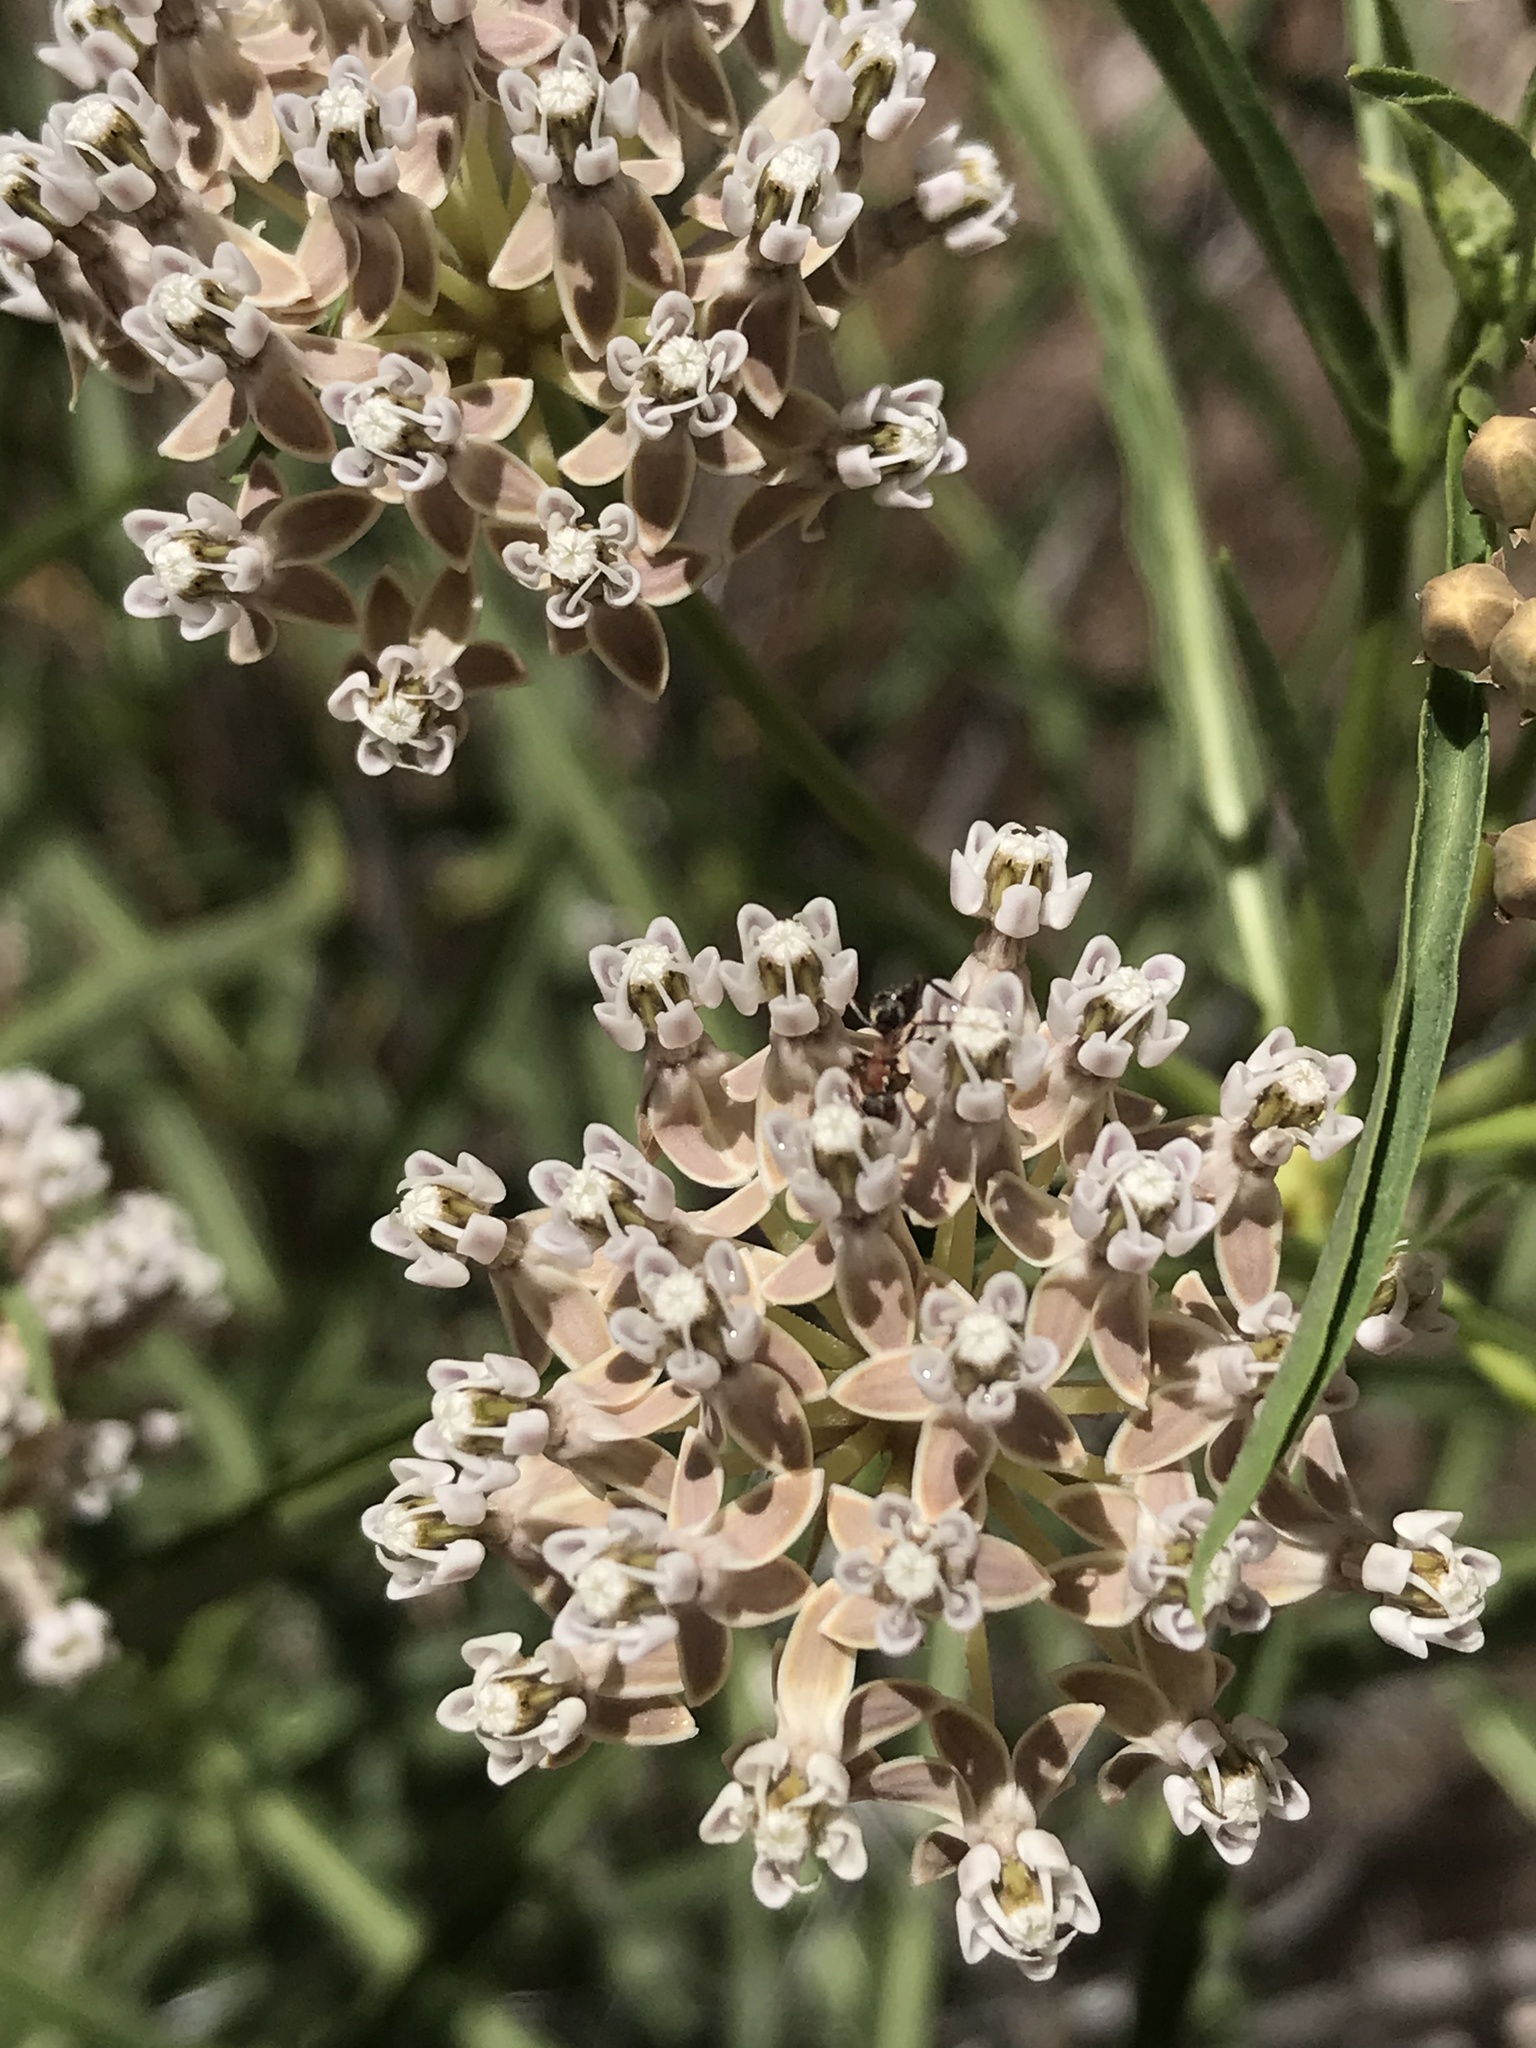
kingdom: Plantae
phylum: Tracheophyta
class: Magnoliopsida
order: Gentianales
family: Apocynaceae
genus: Asclepias
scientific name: Asclepias fascicularis
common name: Mexican milkweed
